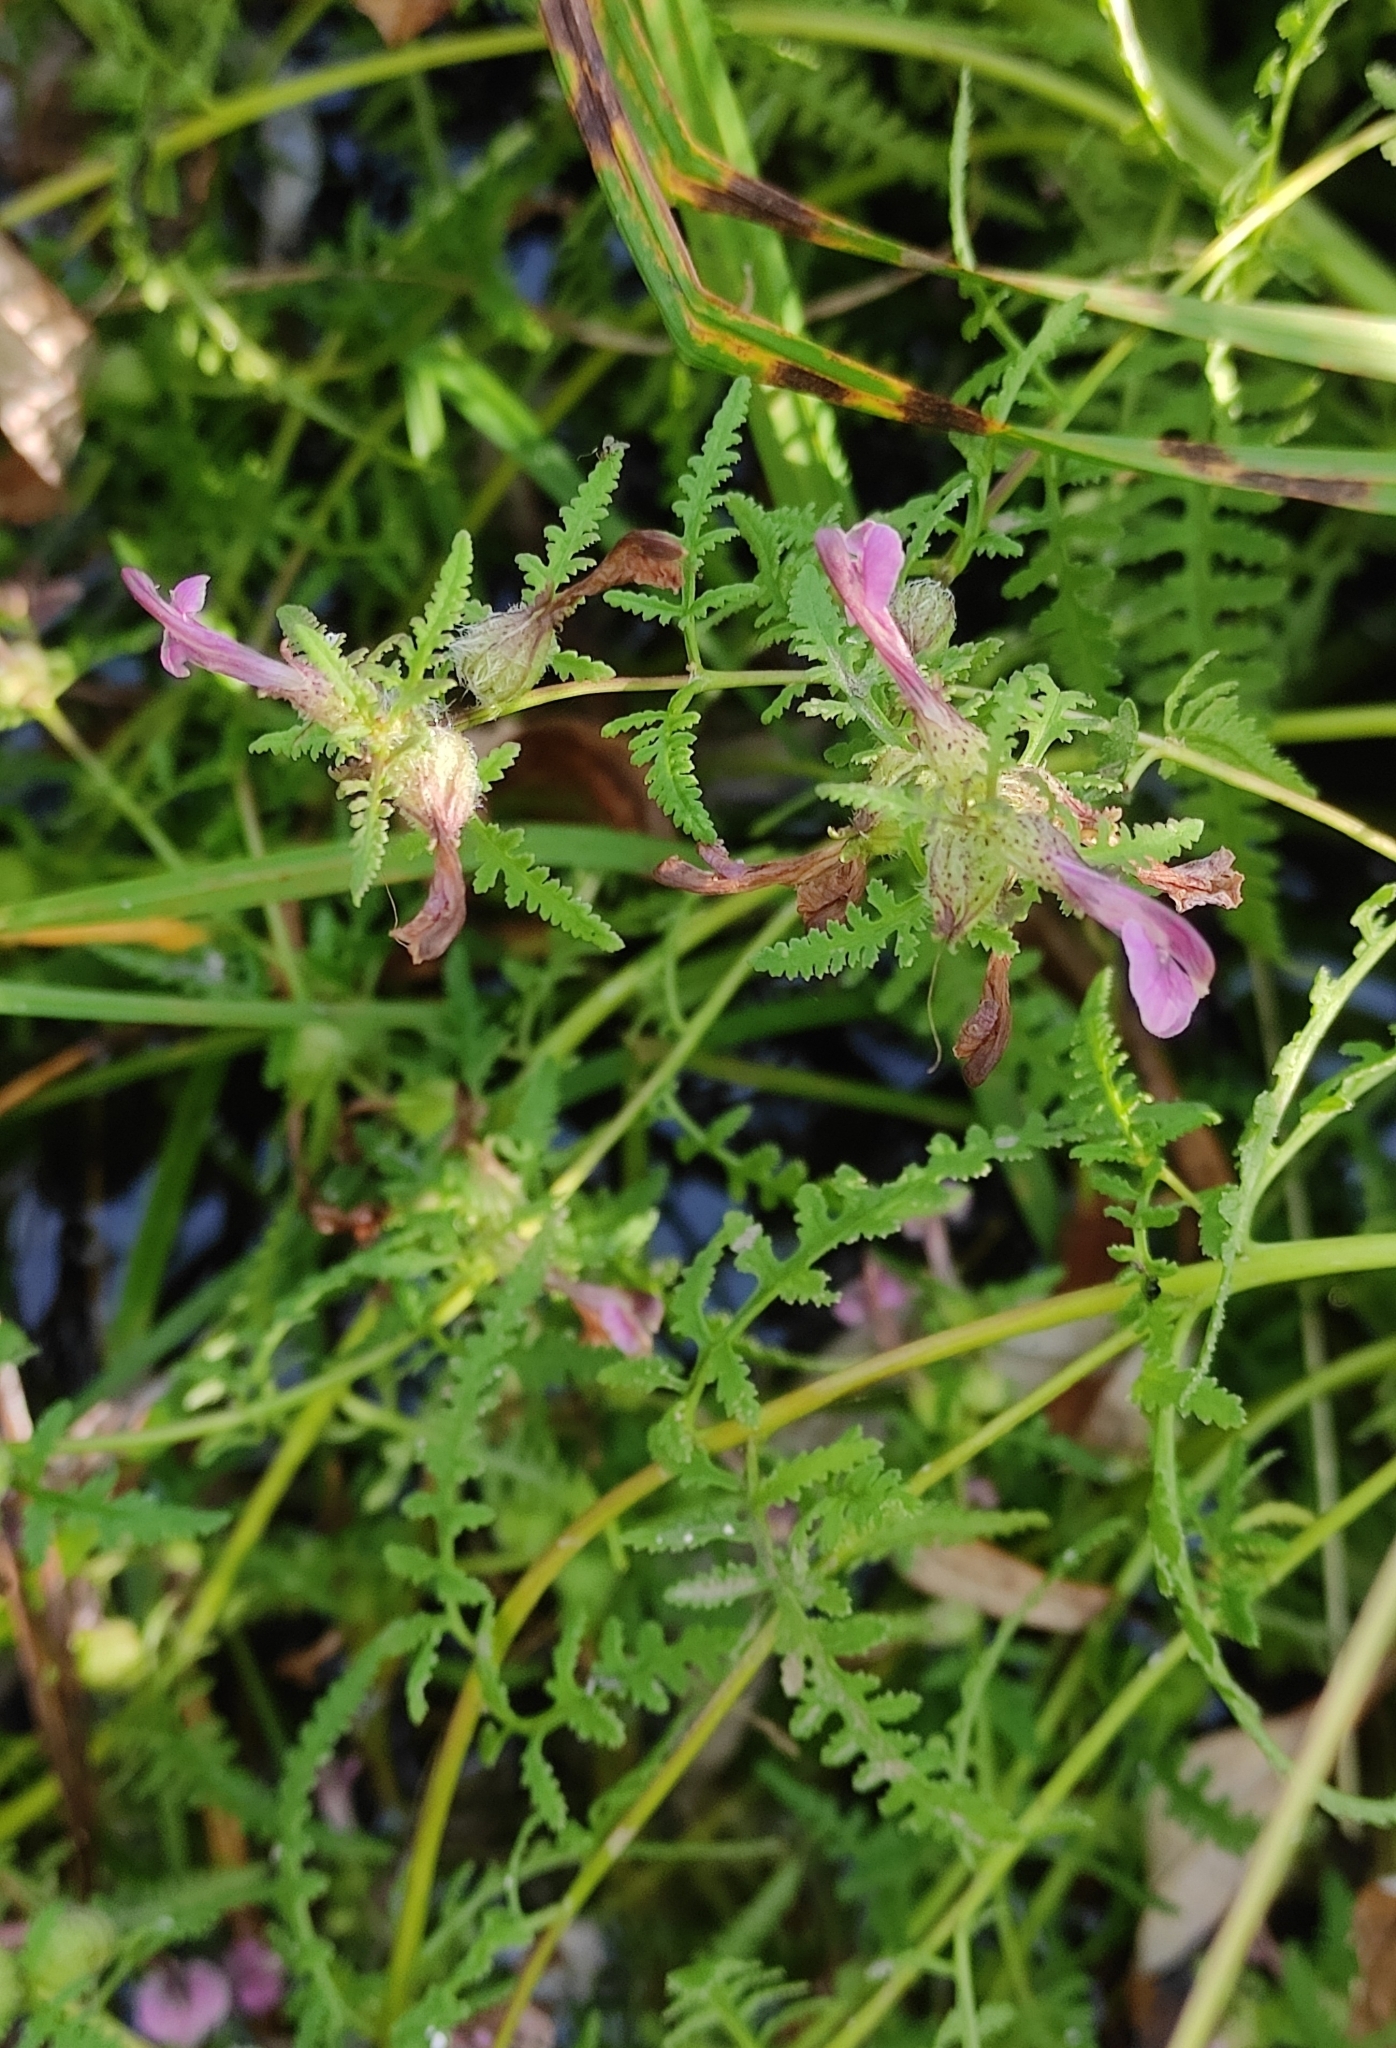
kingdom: Plantae
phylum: Tracheophyta
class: Magnoliopsida
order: Lamiales
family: Orobanchaceae
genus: Pedicularis
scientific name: Pedicularis karoi
